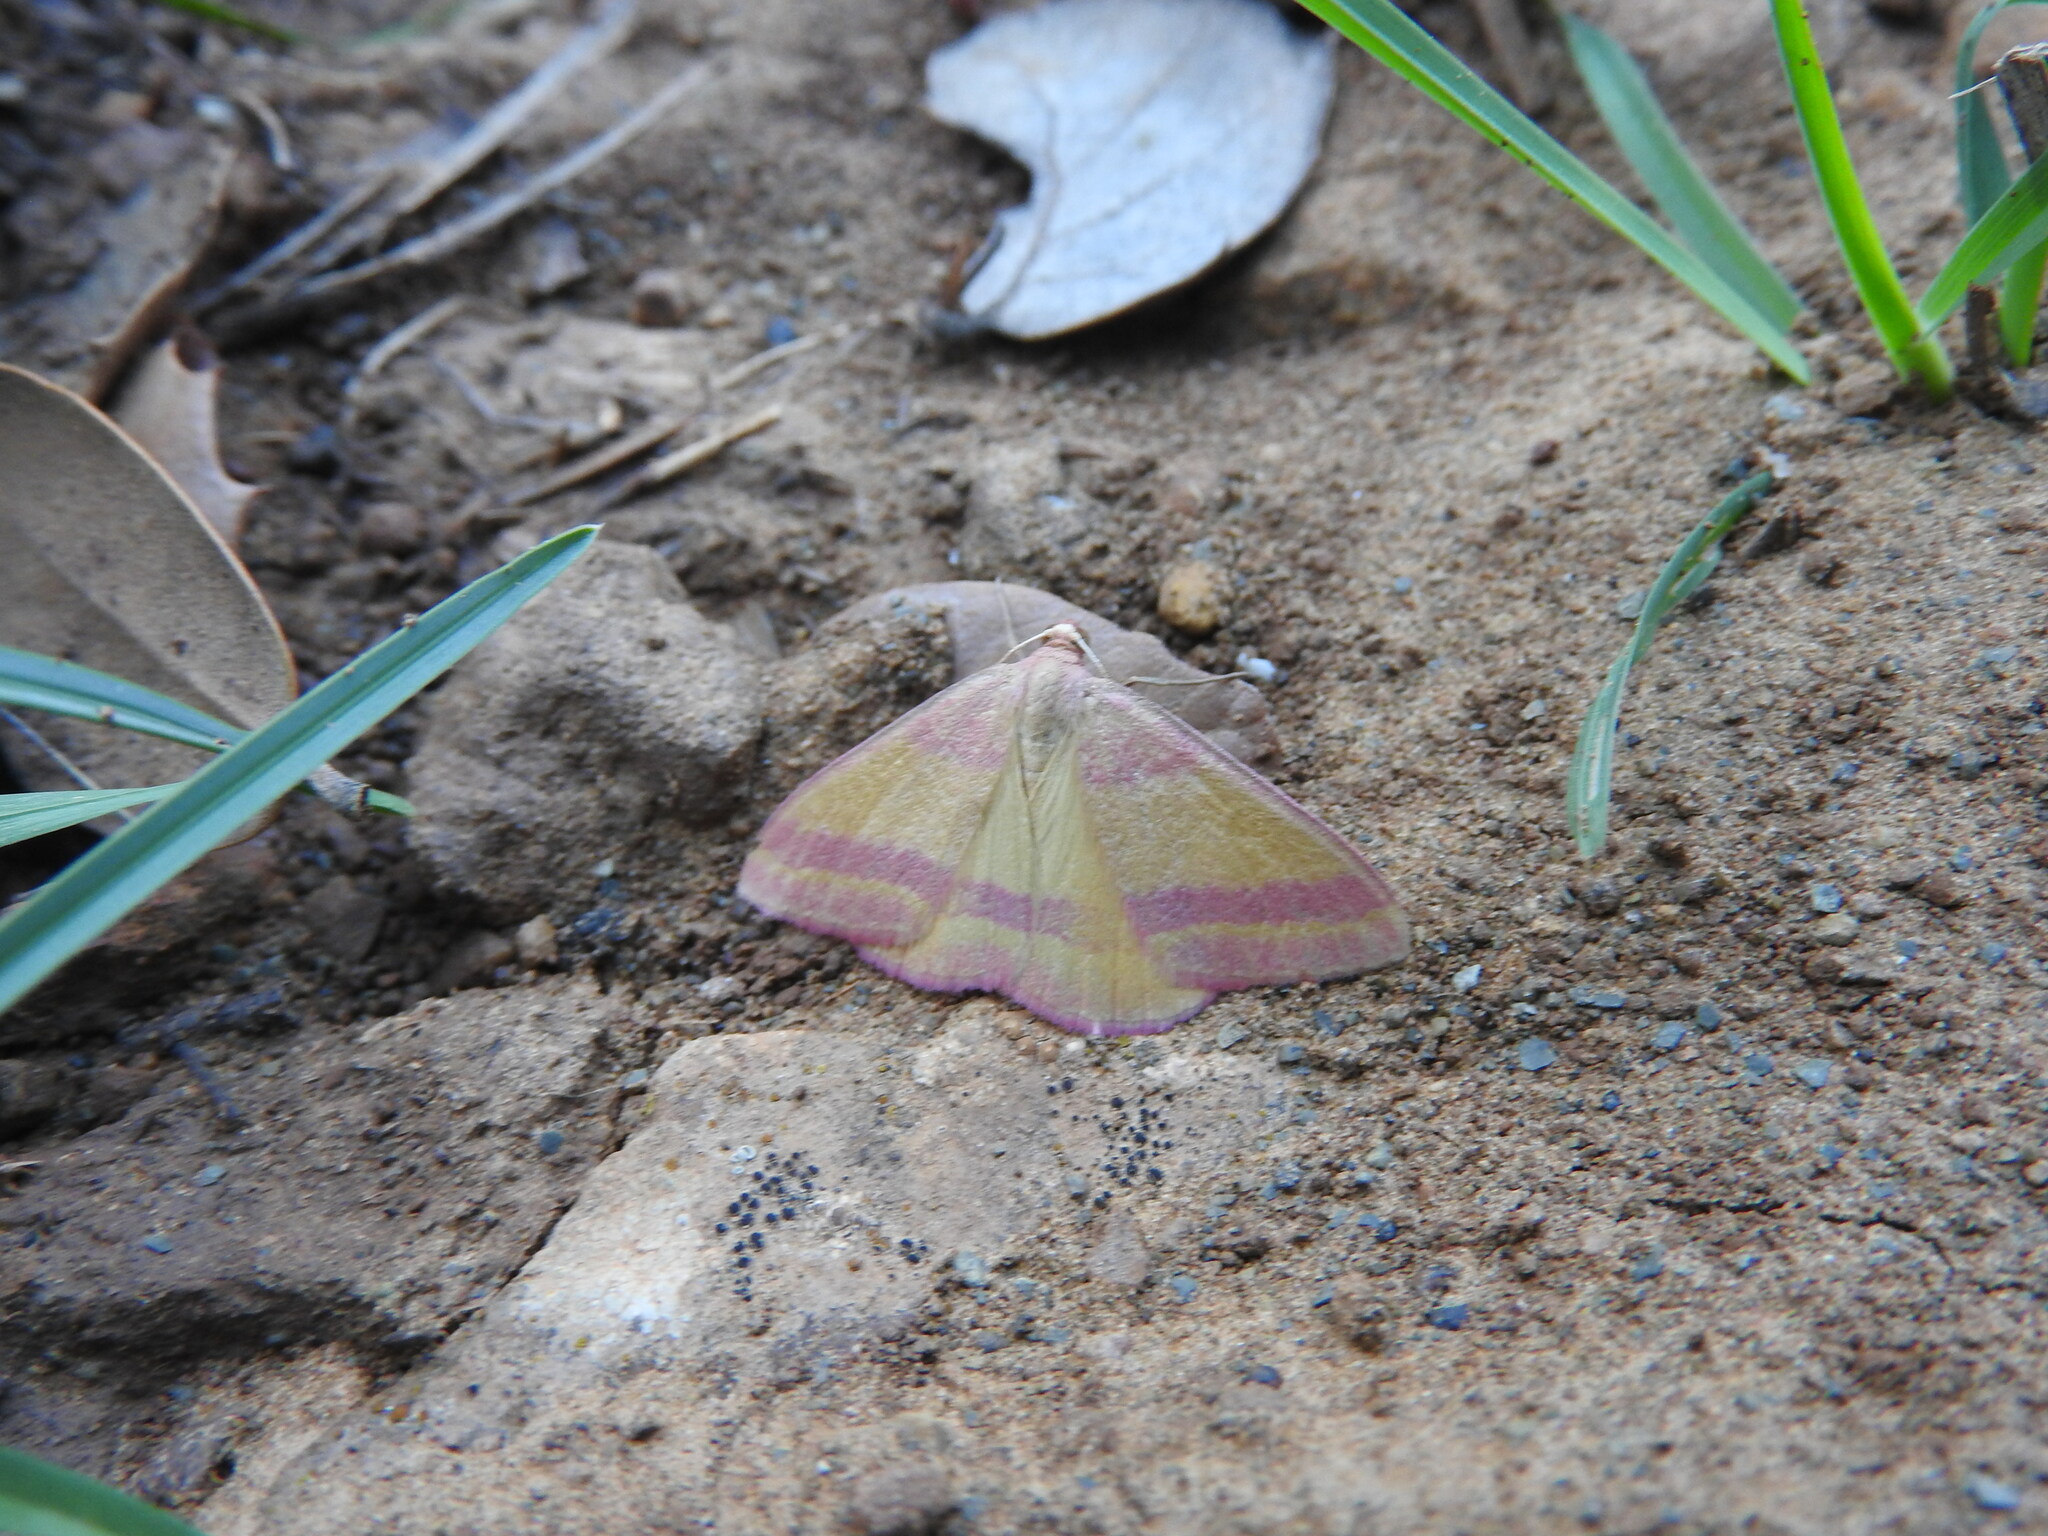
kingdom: Animalia
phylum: Arthropoda
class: Insecta
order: Lepidoptera
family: Geometridae
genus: Rhodostrophia
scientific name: Rhodostrophia pudorata
